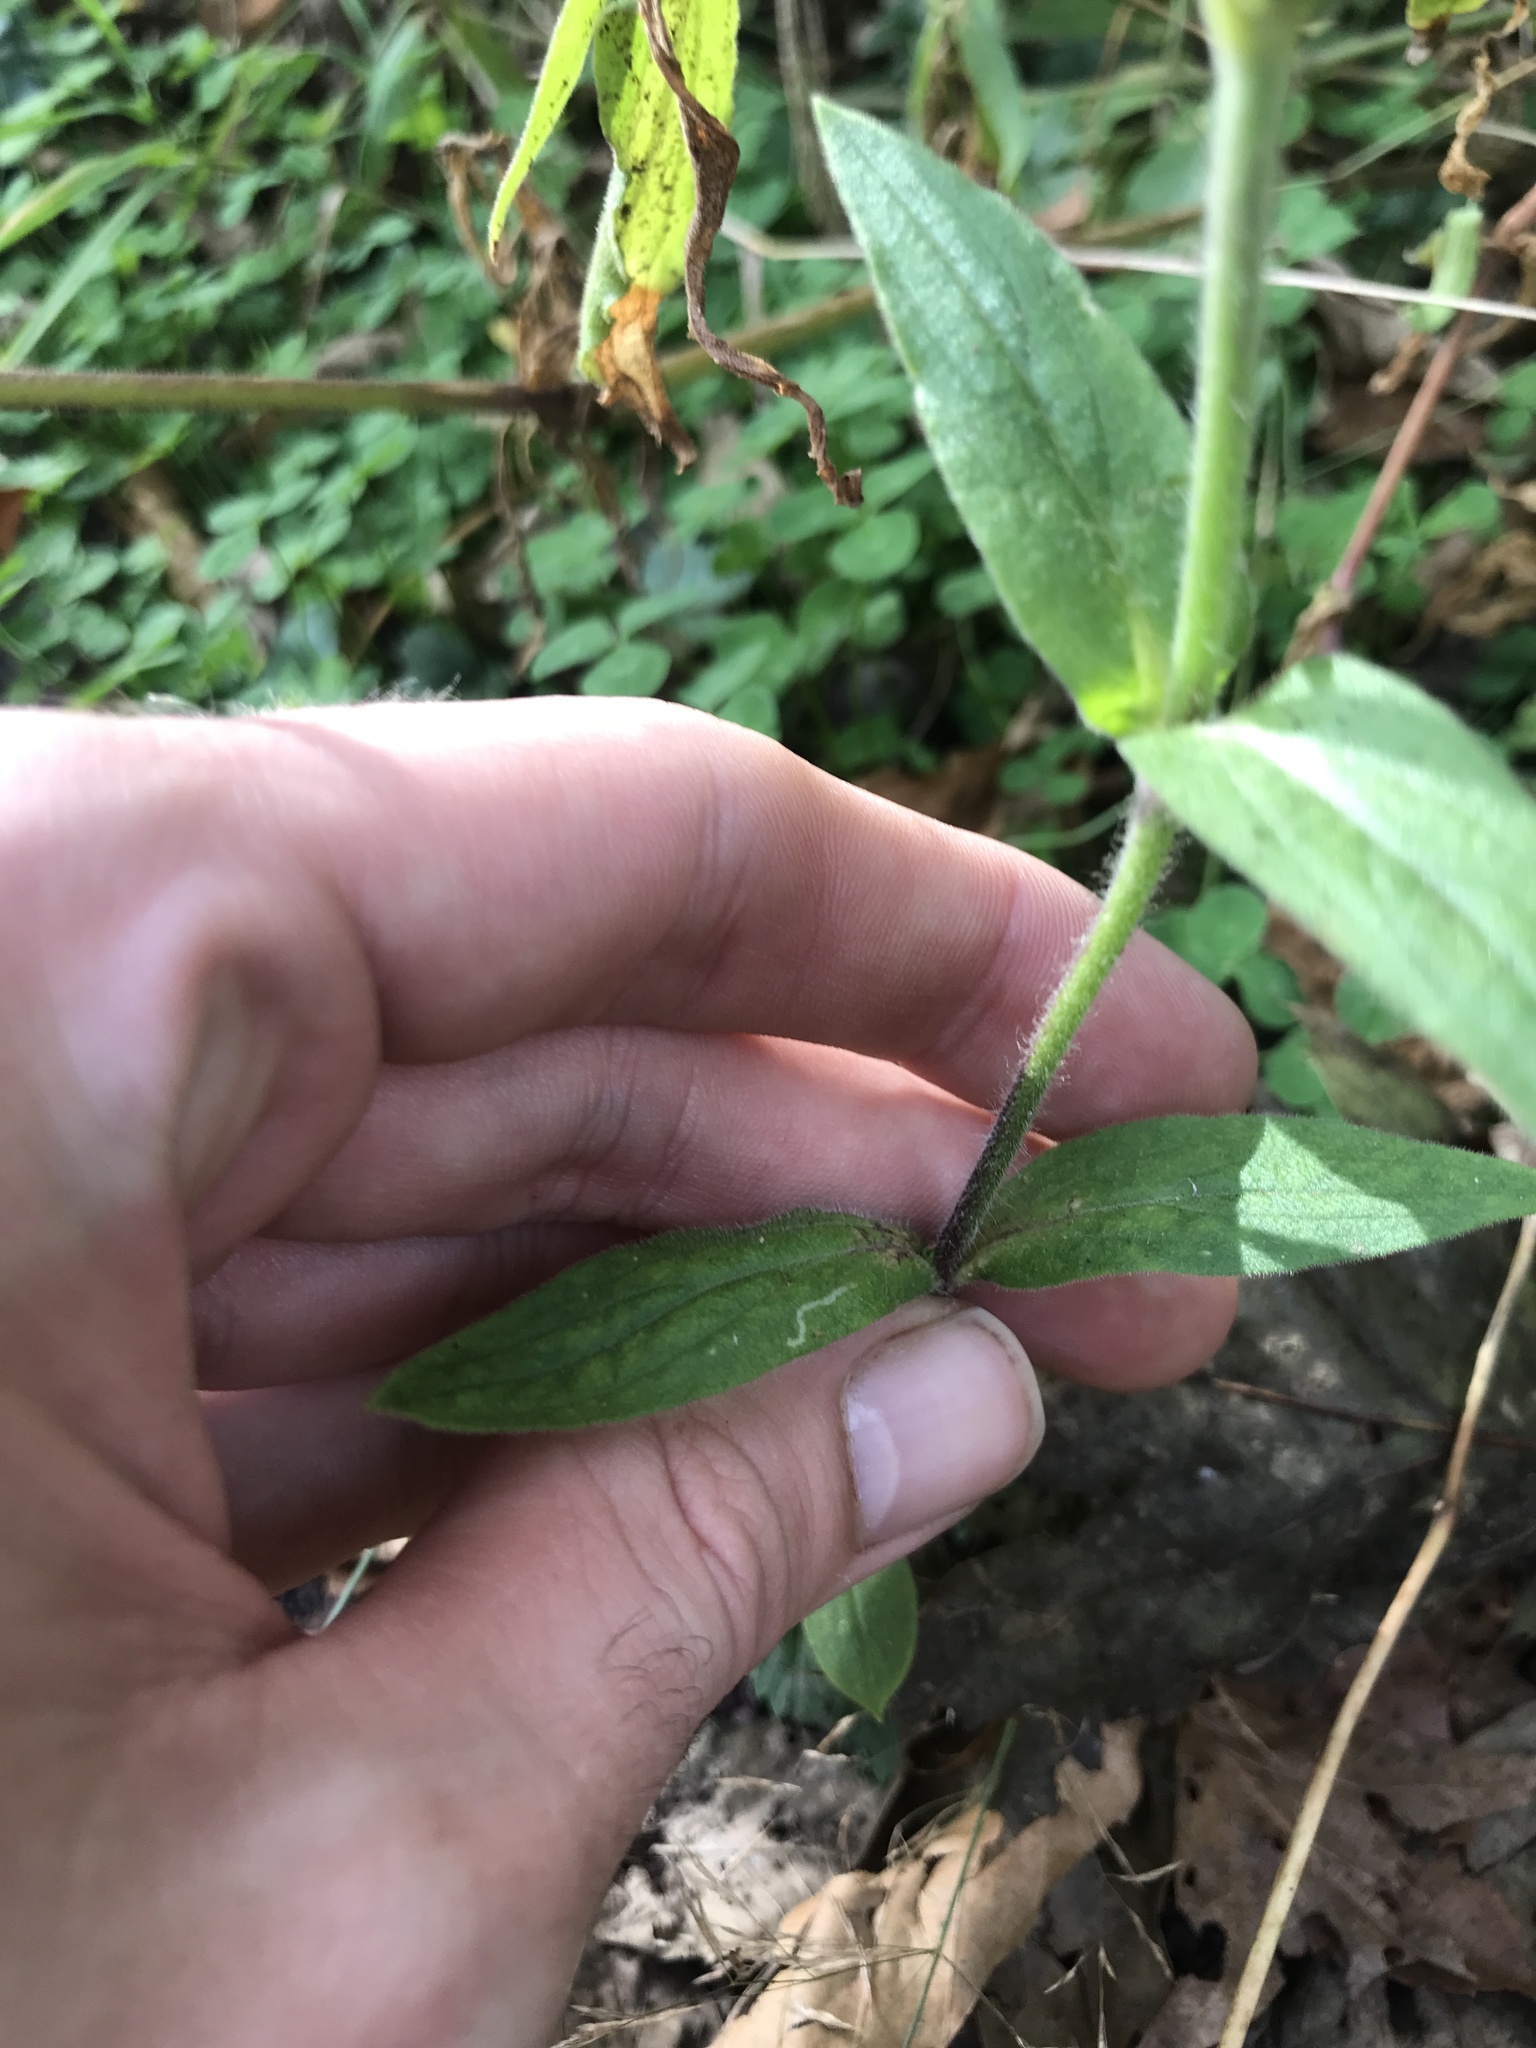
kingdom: Plantae
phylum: Tracheophyta
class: Magnoliopsida
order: Caryophyllales
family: Caryophyllaceae
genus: Silene
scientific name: Silene latifolia
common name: White campion
